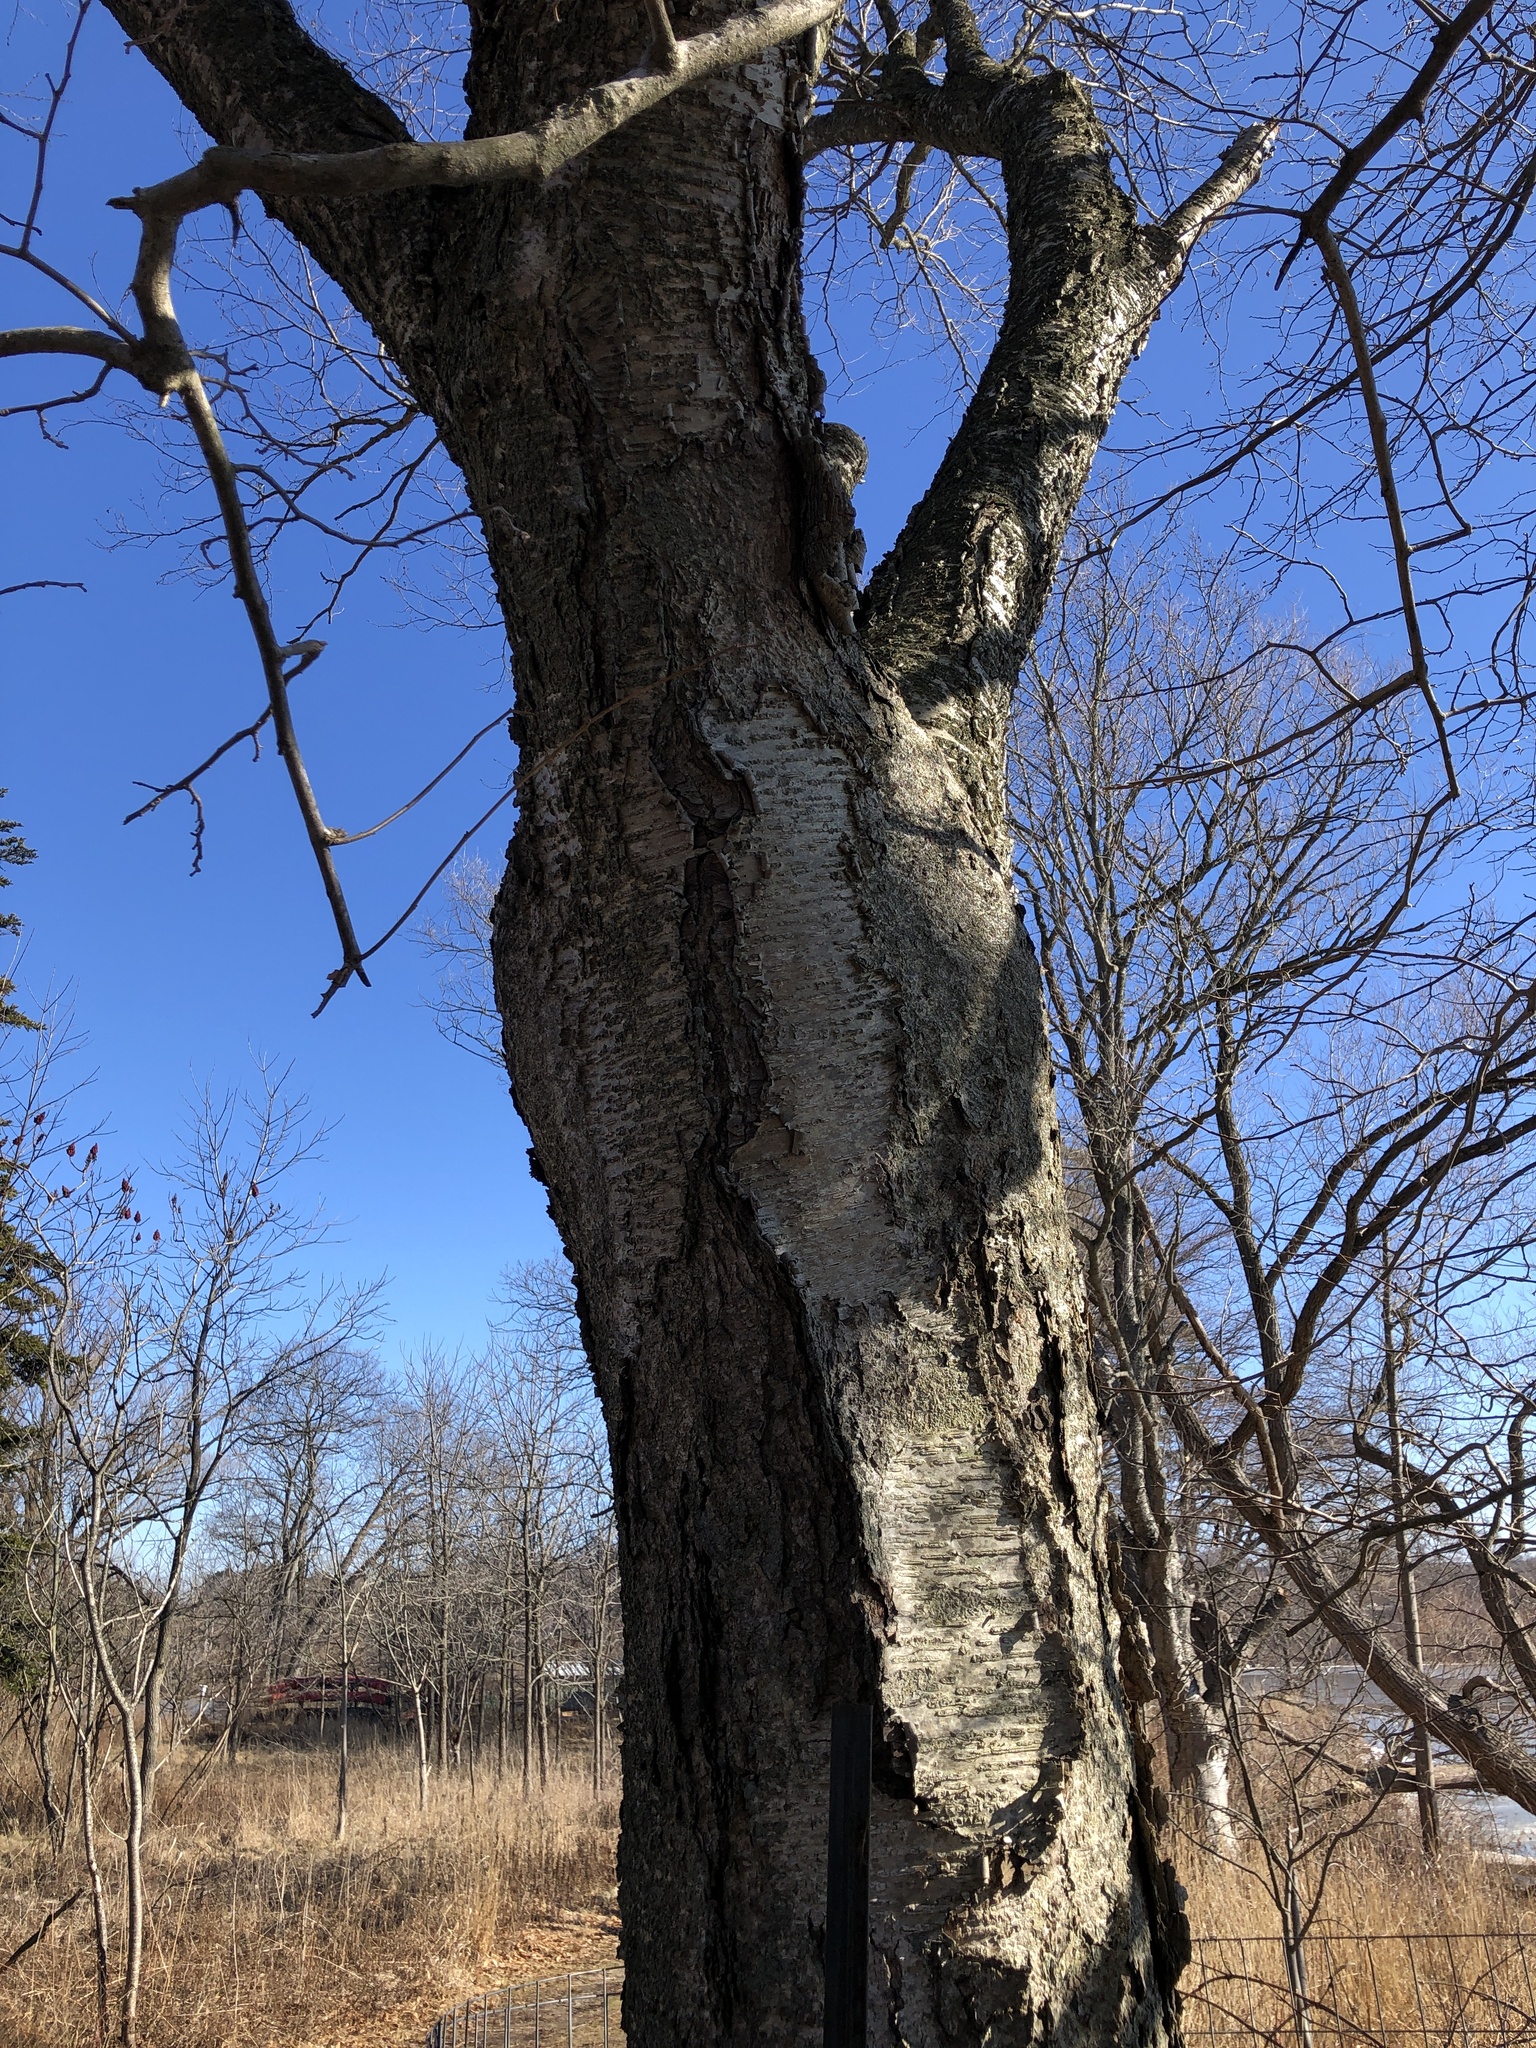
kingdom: Plantae
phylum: Tracheophyta
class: Magnoliopsida
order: Fagales
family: Betulaceae
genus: Betula
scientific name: Betula alleghaniensis
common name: Yellow birch
